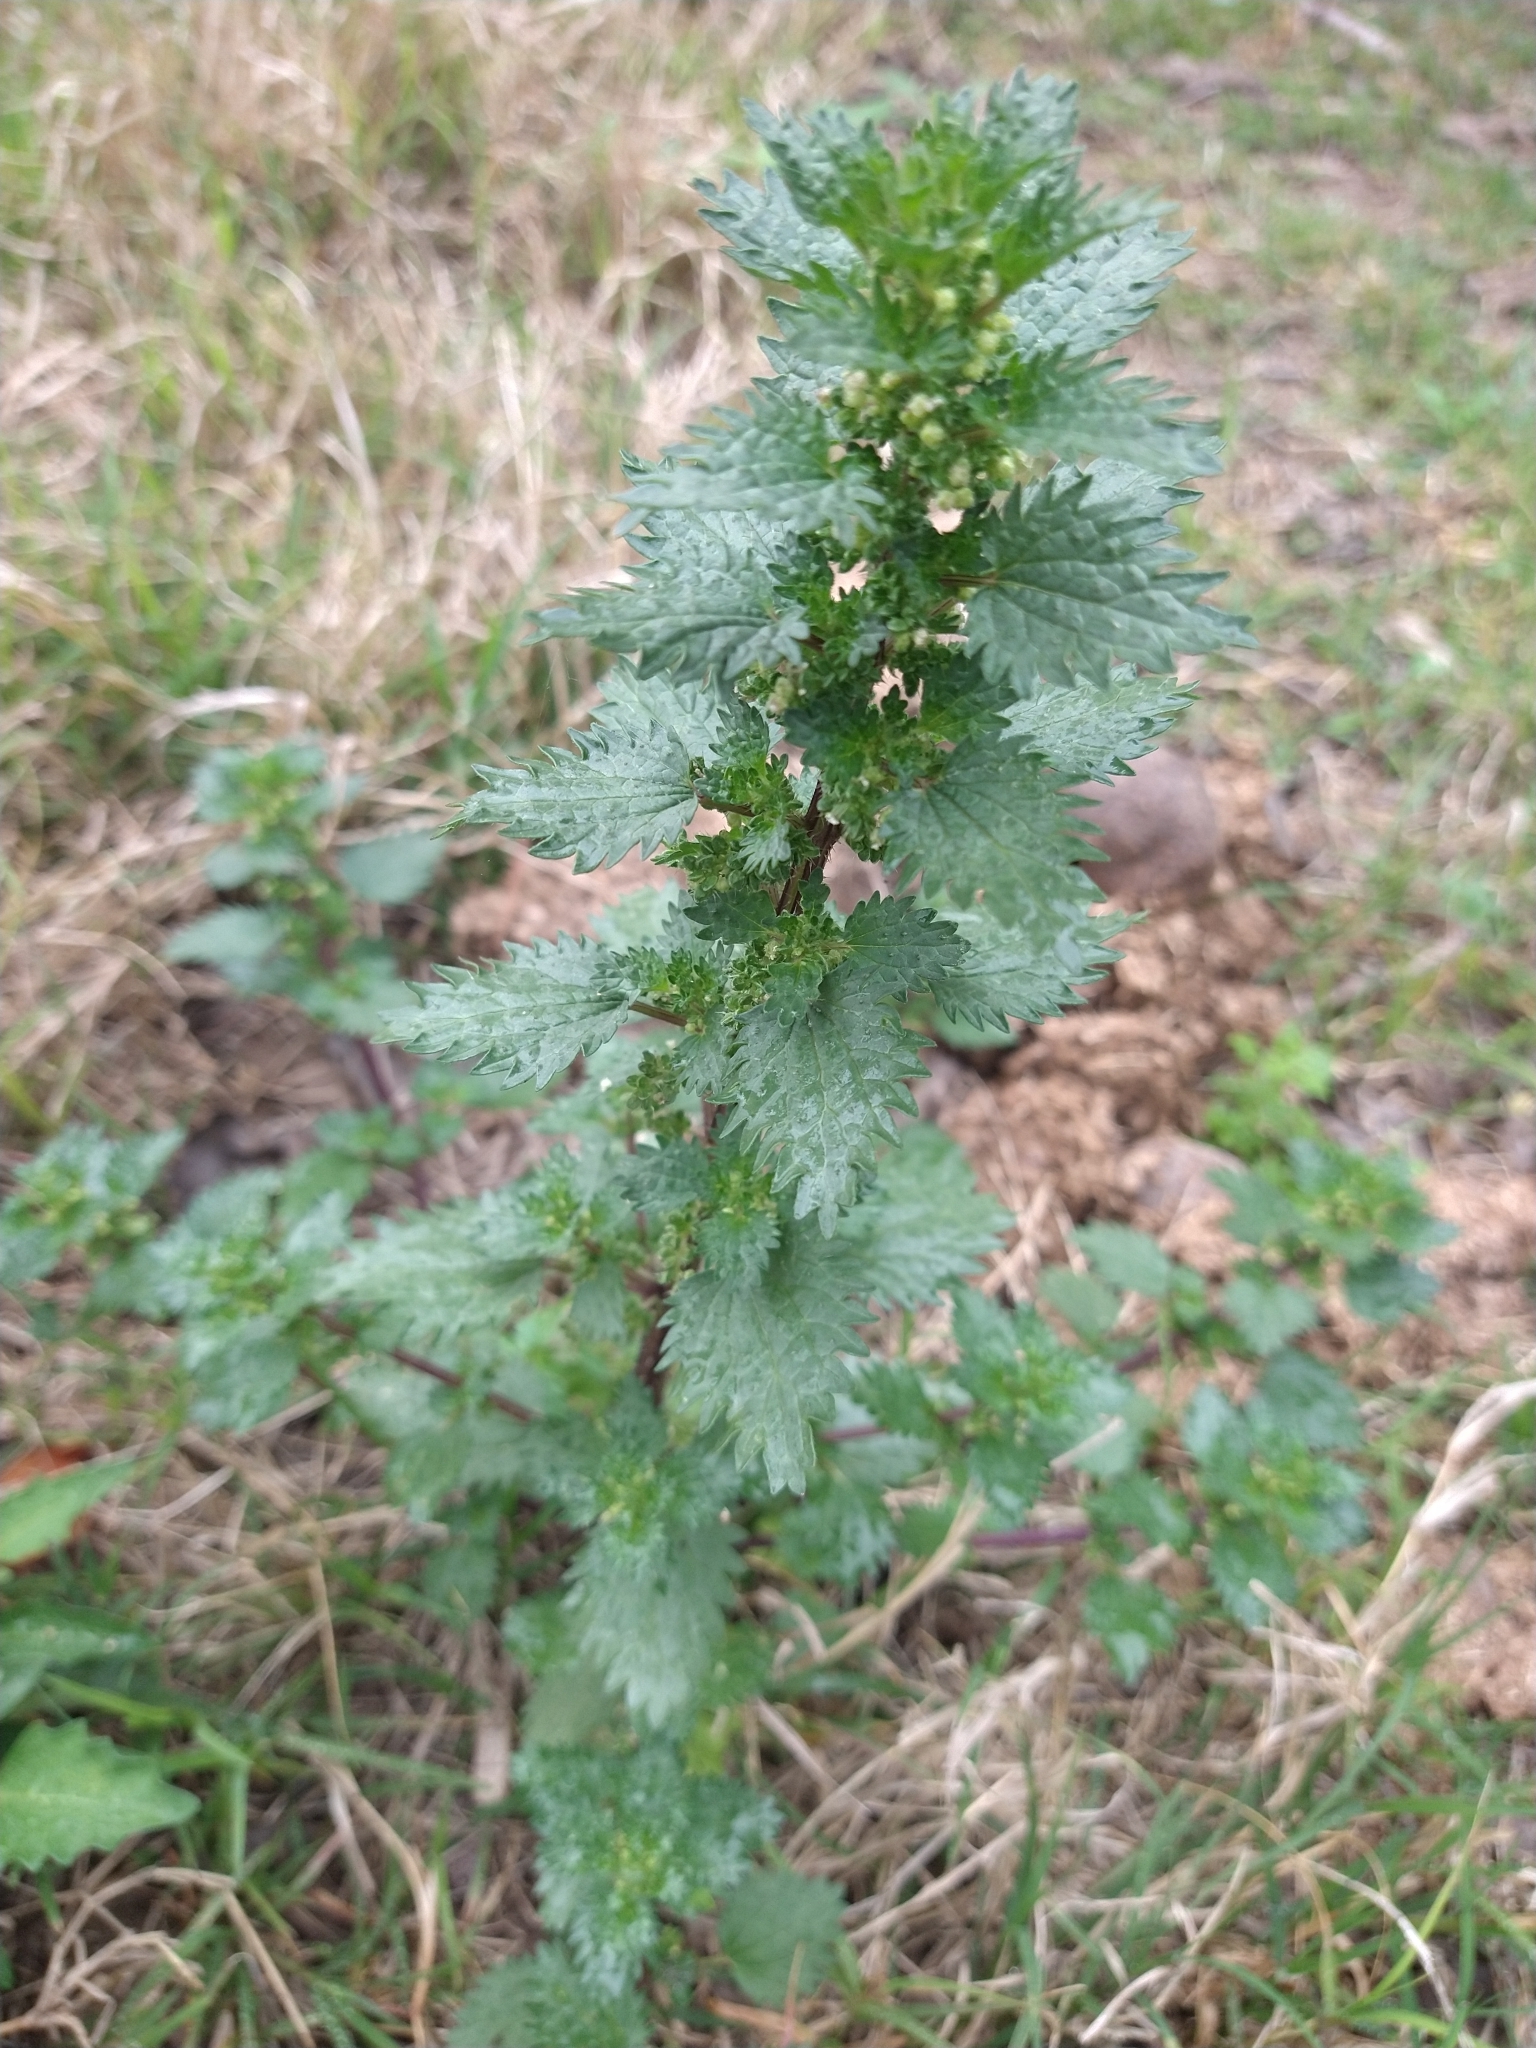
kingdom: Plantae
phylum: Tracheophyta
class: Magnoliopsida
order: Rosales
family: Urticaceae
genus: Urtica
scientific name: Urtica urens
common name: Dwarf nettle
